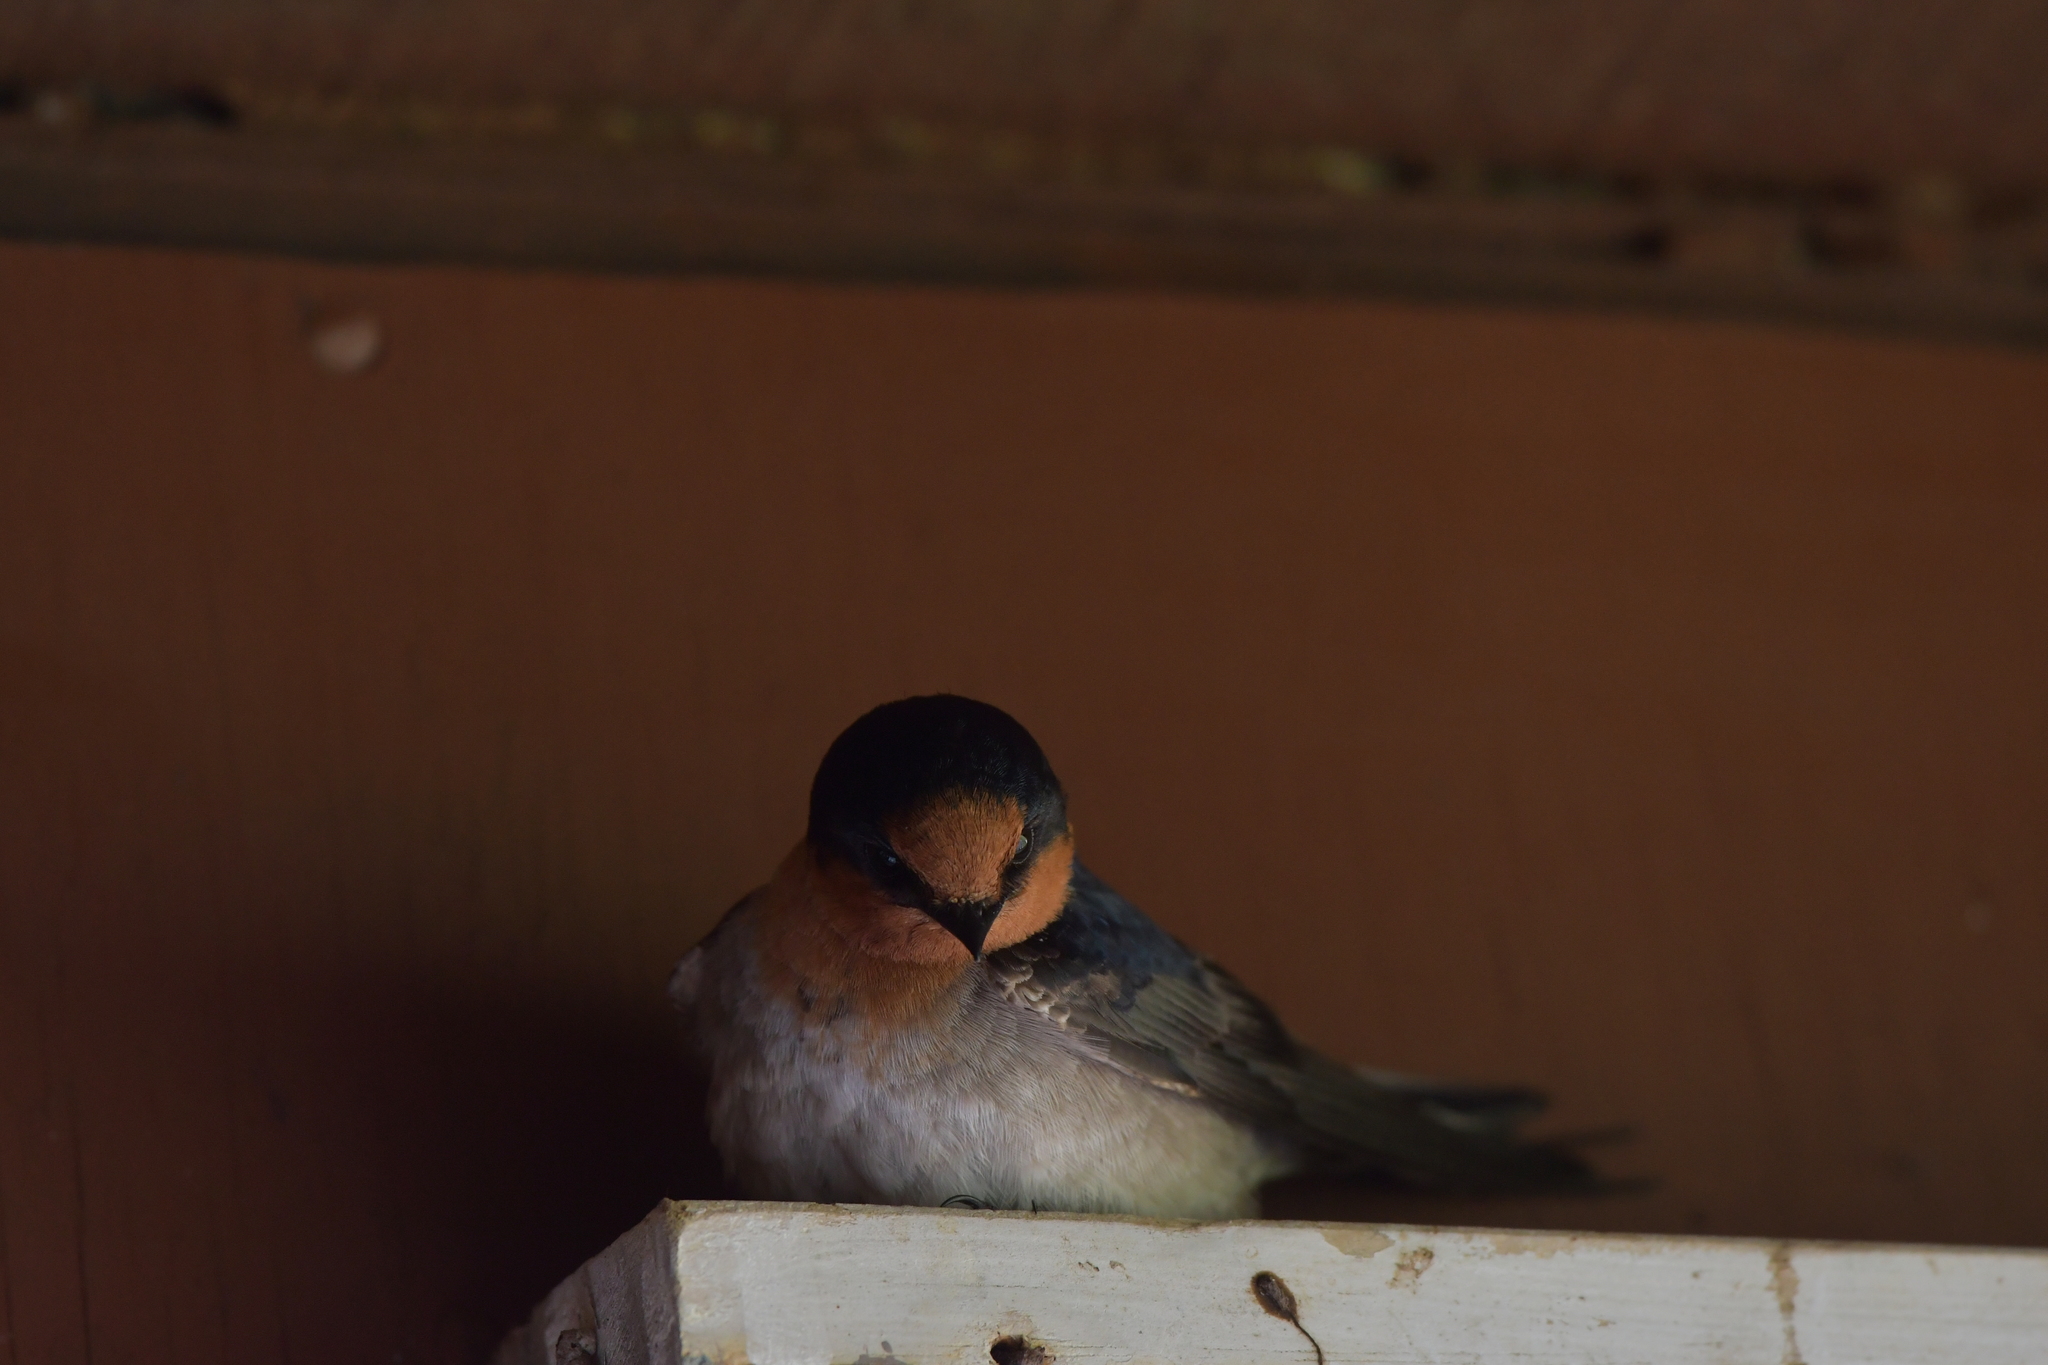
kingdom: Animalia
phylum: Chordata
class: Aves
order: Passeriformes
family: Hirundinidae
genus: Hirundo
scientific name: Hirundo neoxena
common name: Welcome swallow
